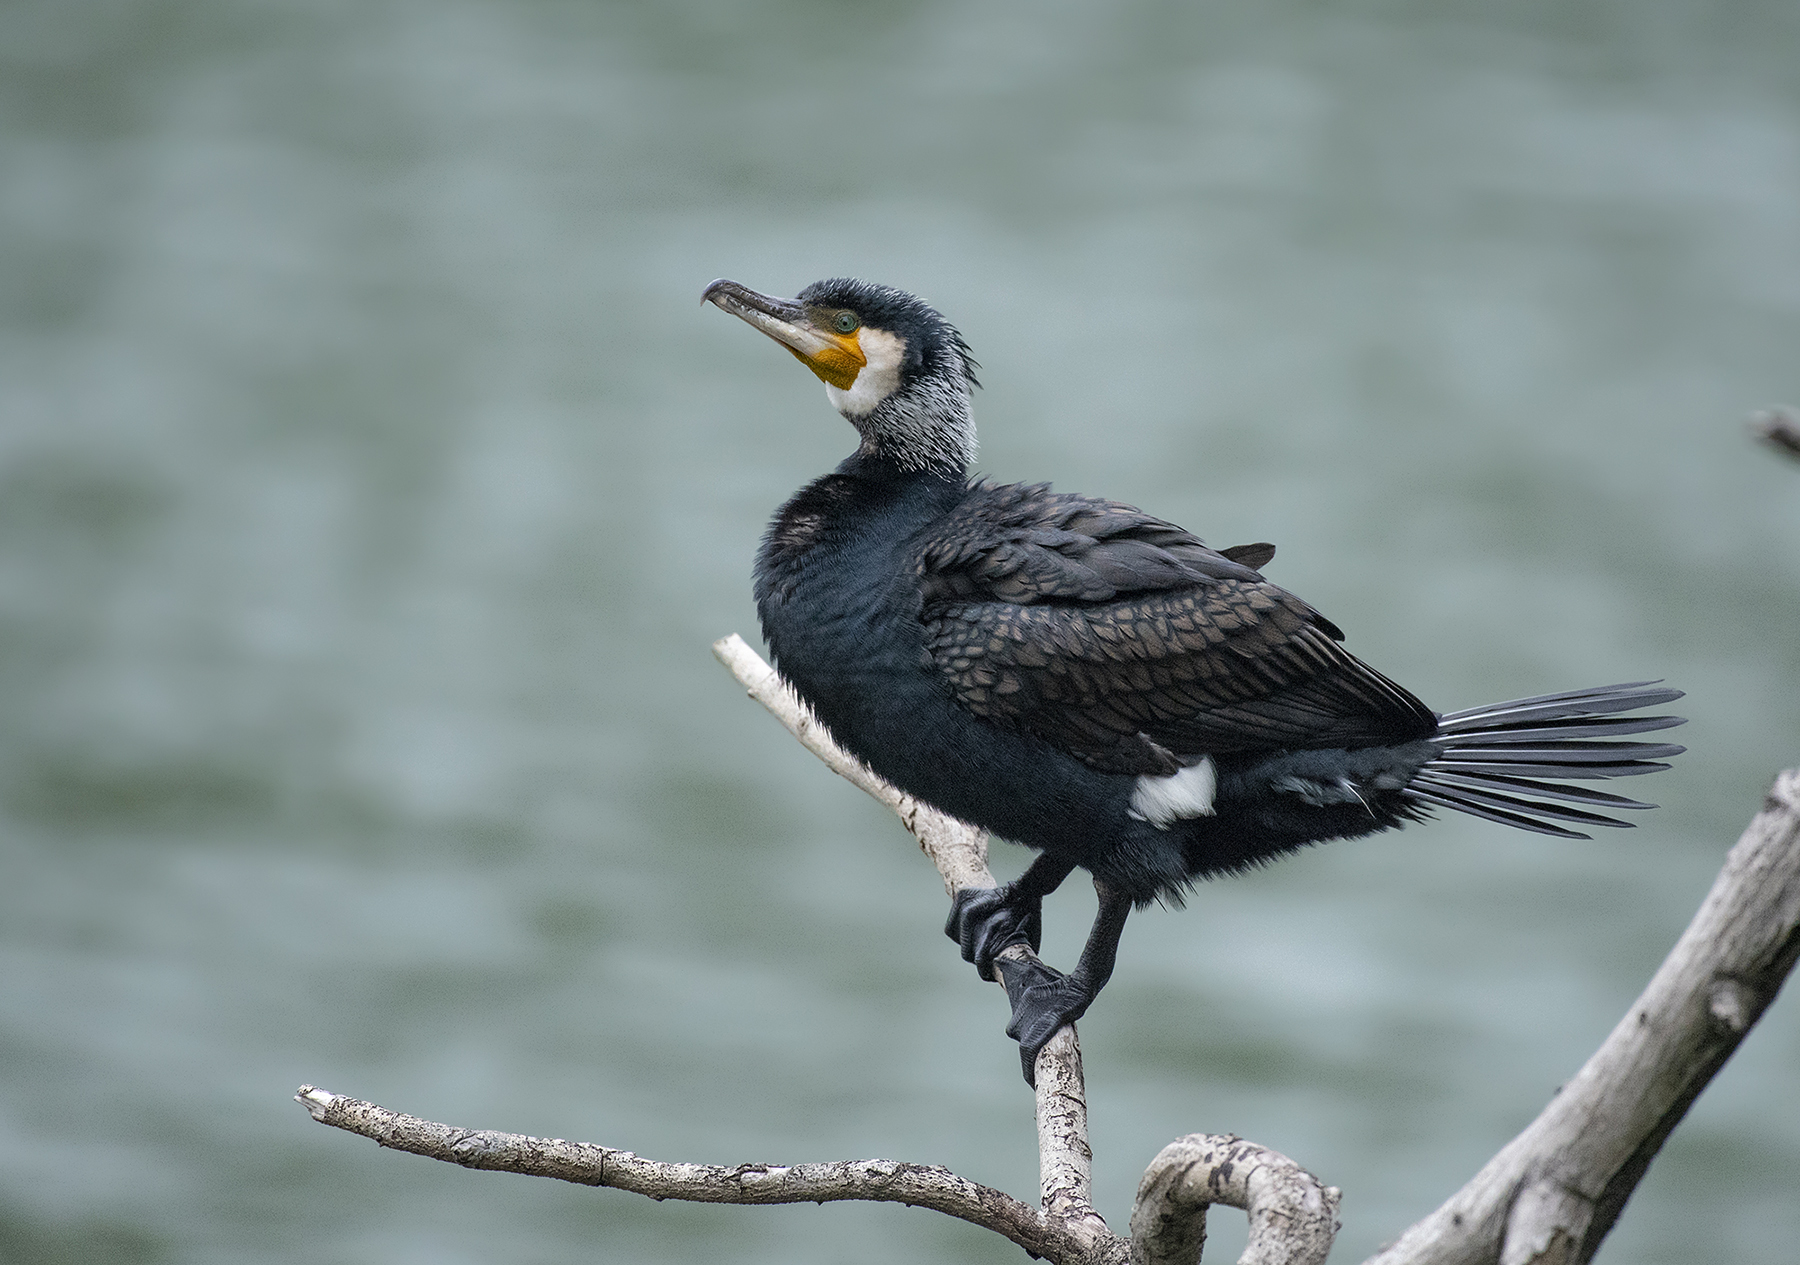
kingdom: Animalia
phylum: Chordata
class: Aves
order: Suliformes
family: Phalacrocoracidae
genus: Phalacrocorax
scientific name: Phalacrocorax carbo
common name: Great cormorant
